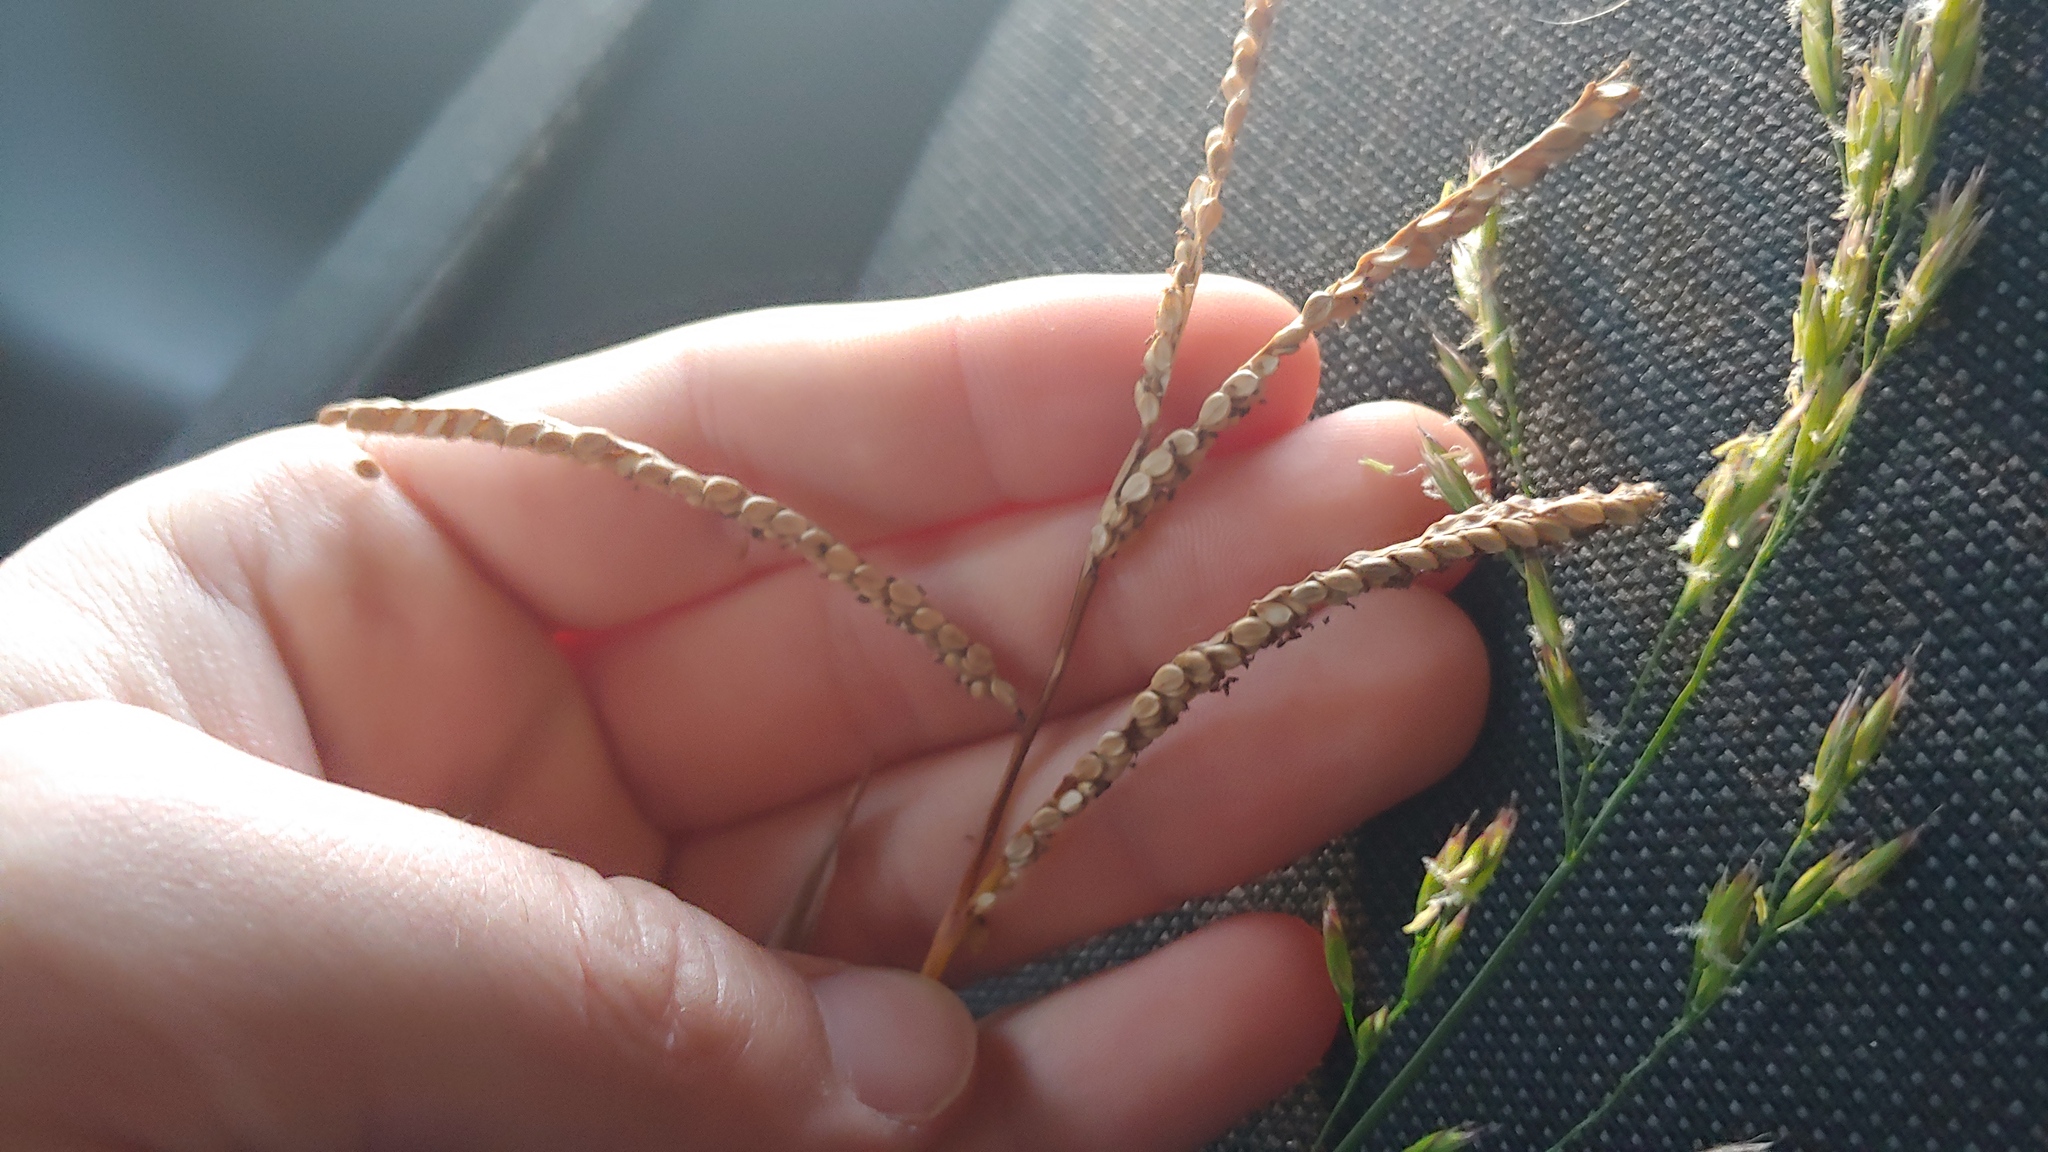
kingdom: Plantae
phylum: Tracheophyta
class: Liliopsida
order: Poales
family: Poaceae
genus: Paspalum
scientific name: Paspalum pubiflorum
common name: Hairy-seed paspalum
